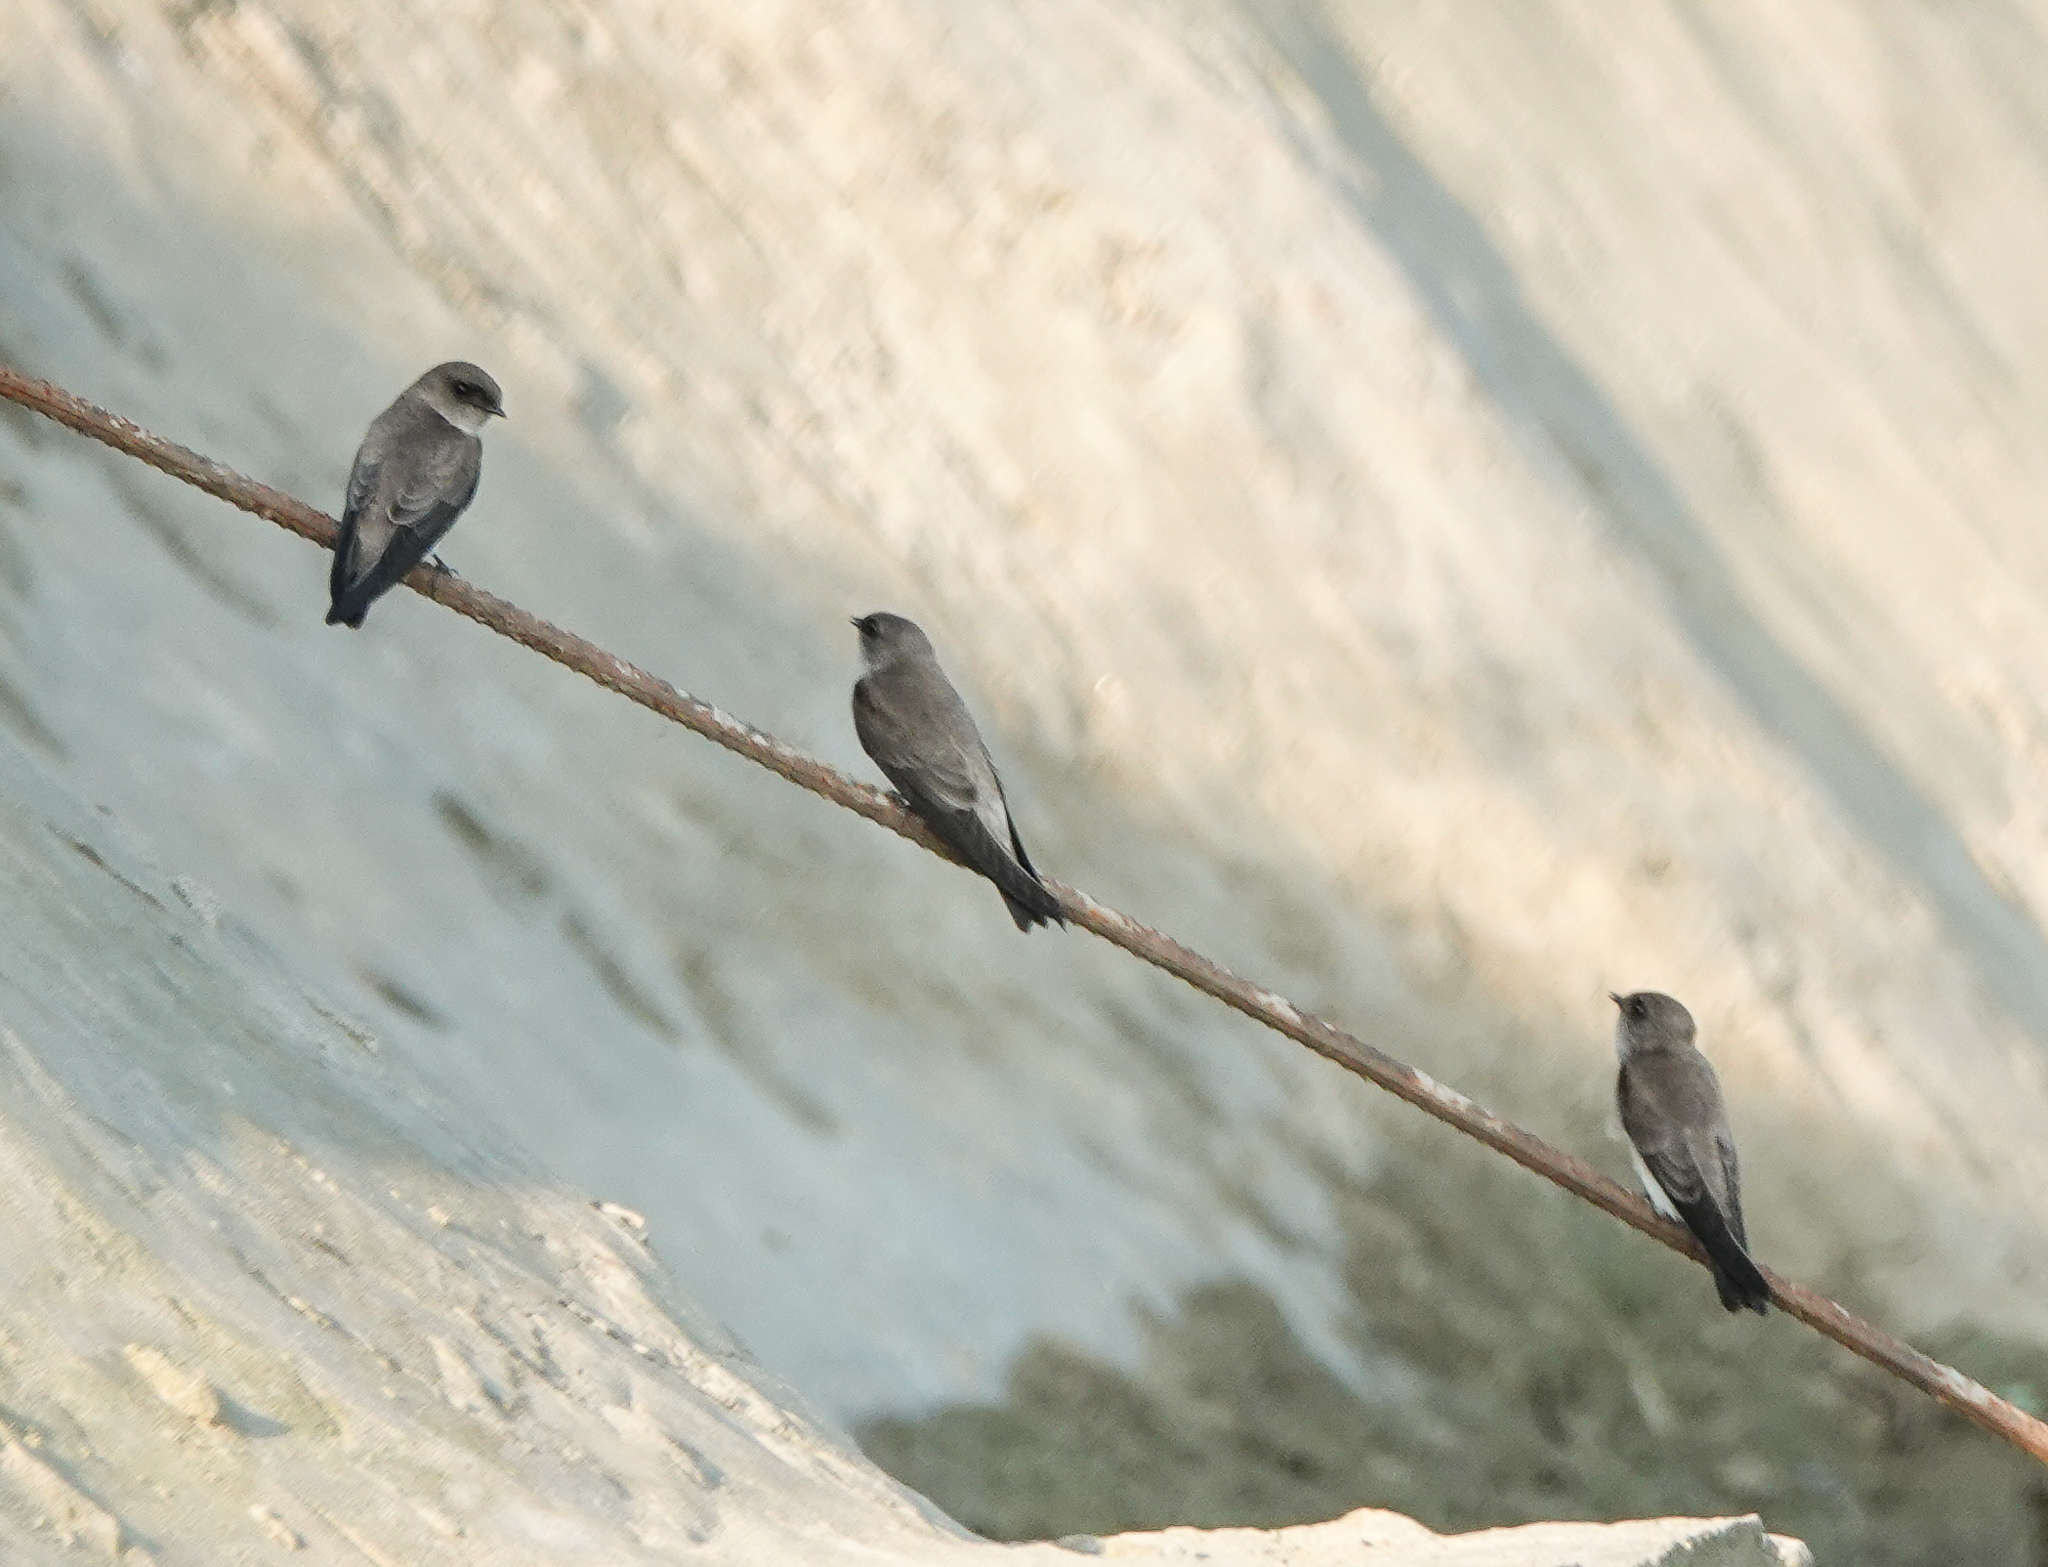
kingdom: Animalia
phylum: Chordata
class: Aves
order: Passeriformes
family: Hirundinidae
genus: Riparia
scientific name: Riparia riparia
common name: Sand martin
